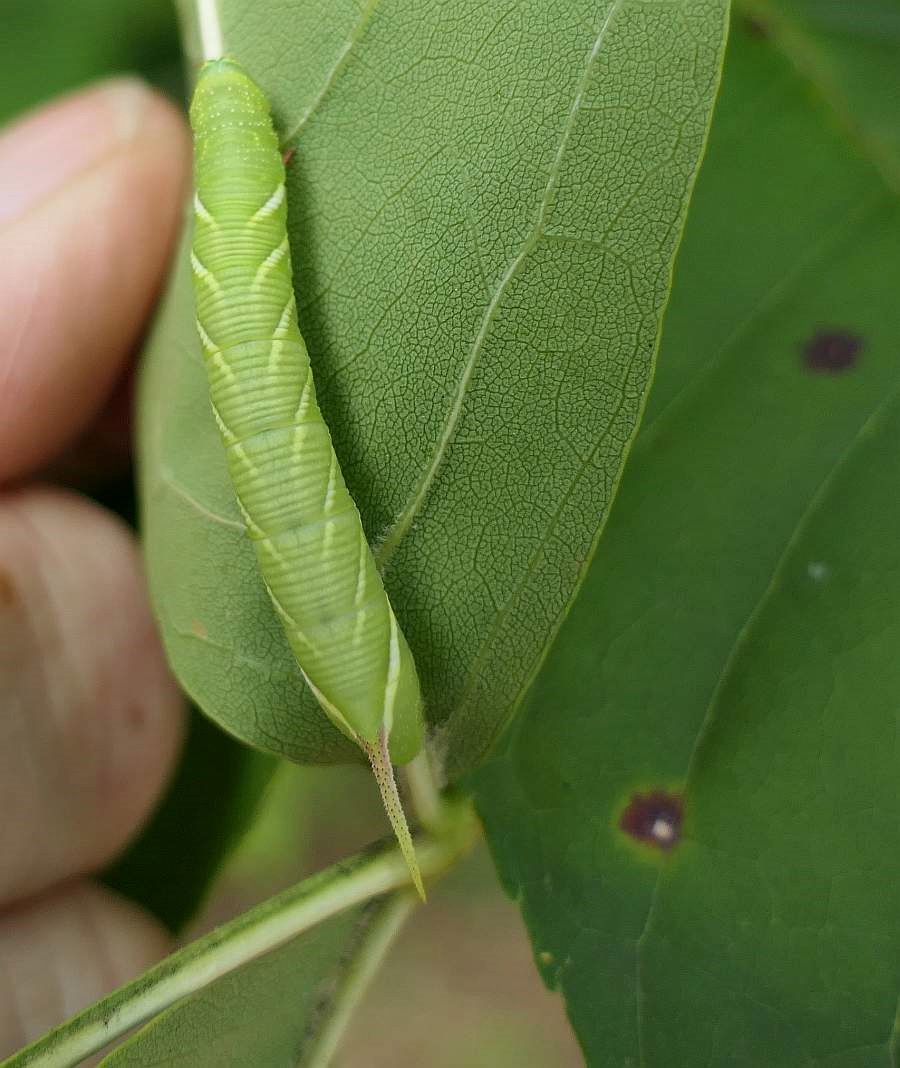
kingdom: Animalia
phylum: Arthropoda
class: Insecta
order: Lepidoptera
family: Sphingidae
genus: Ceratomia
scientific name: Ceratomia undulosa
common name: Waved sphinx
